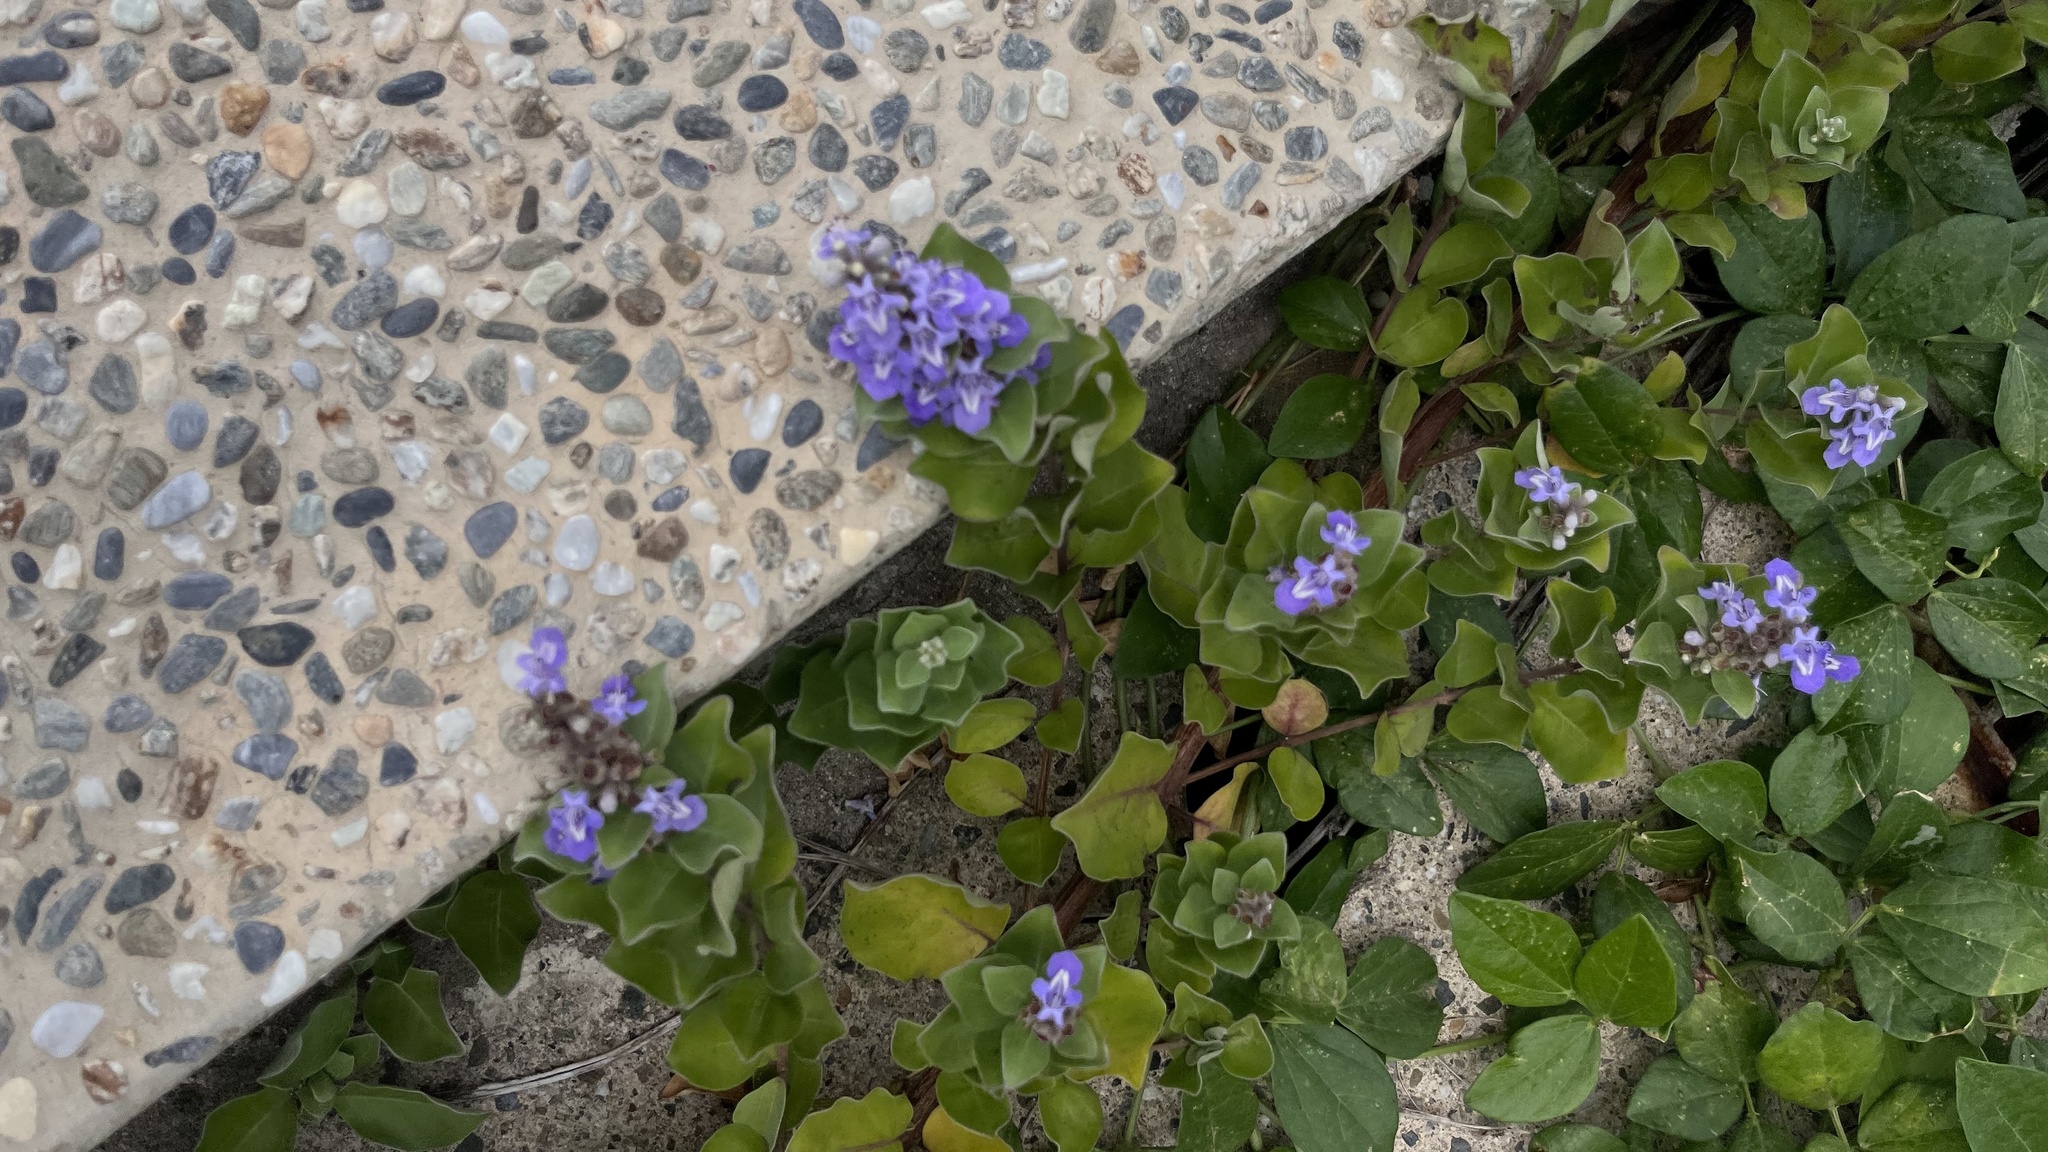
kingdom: Plantae
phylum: Tracheophyta
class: Magnoliopsida
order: Lamiales
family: Lamiaceae
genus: Vitex
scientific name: Vitex rotundifolia
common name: Beach vitex
